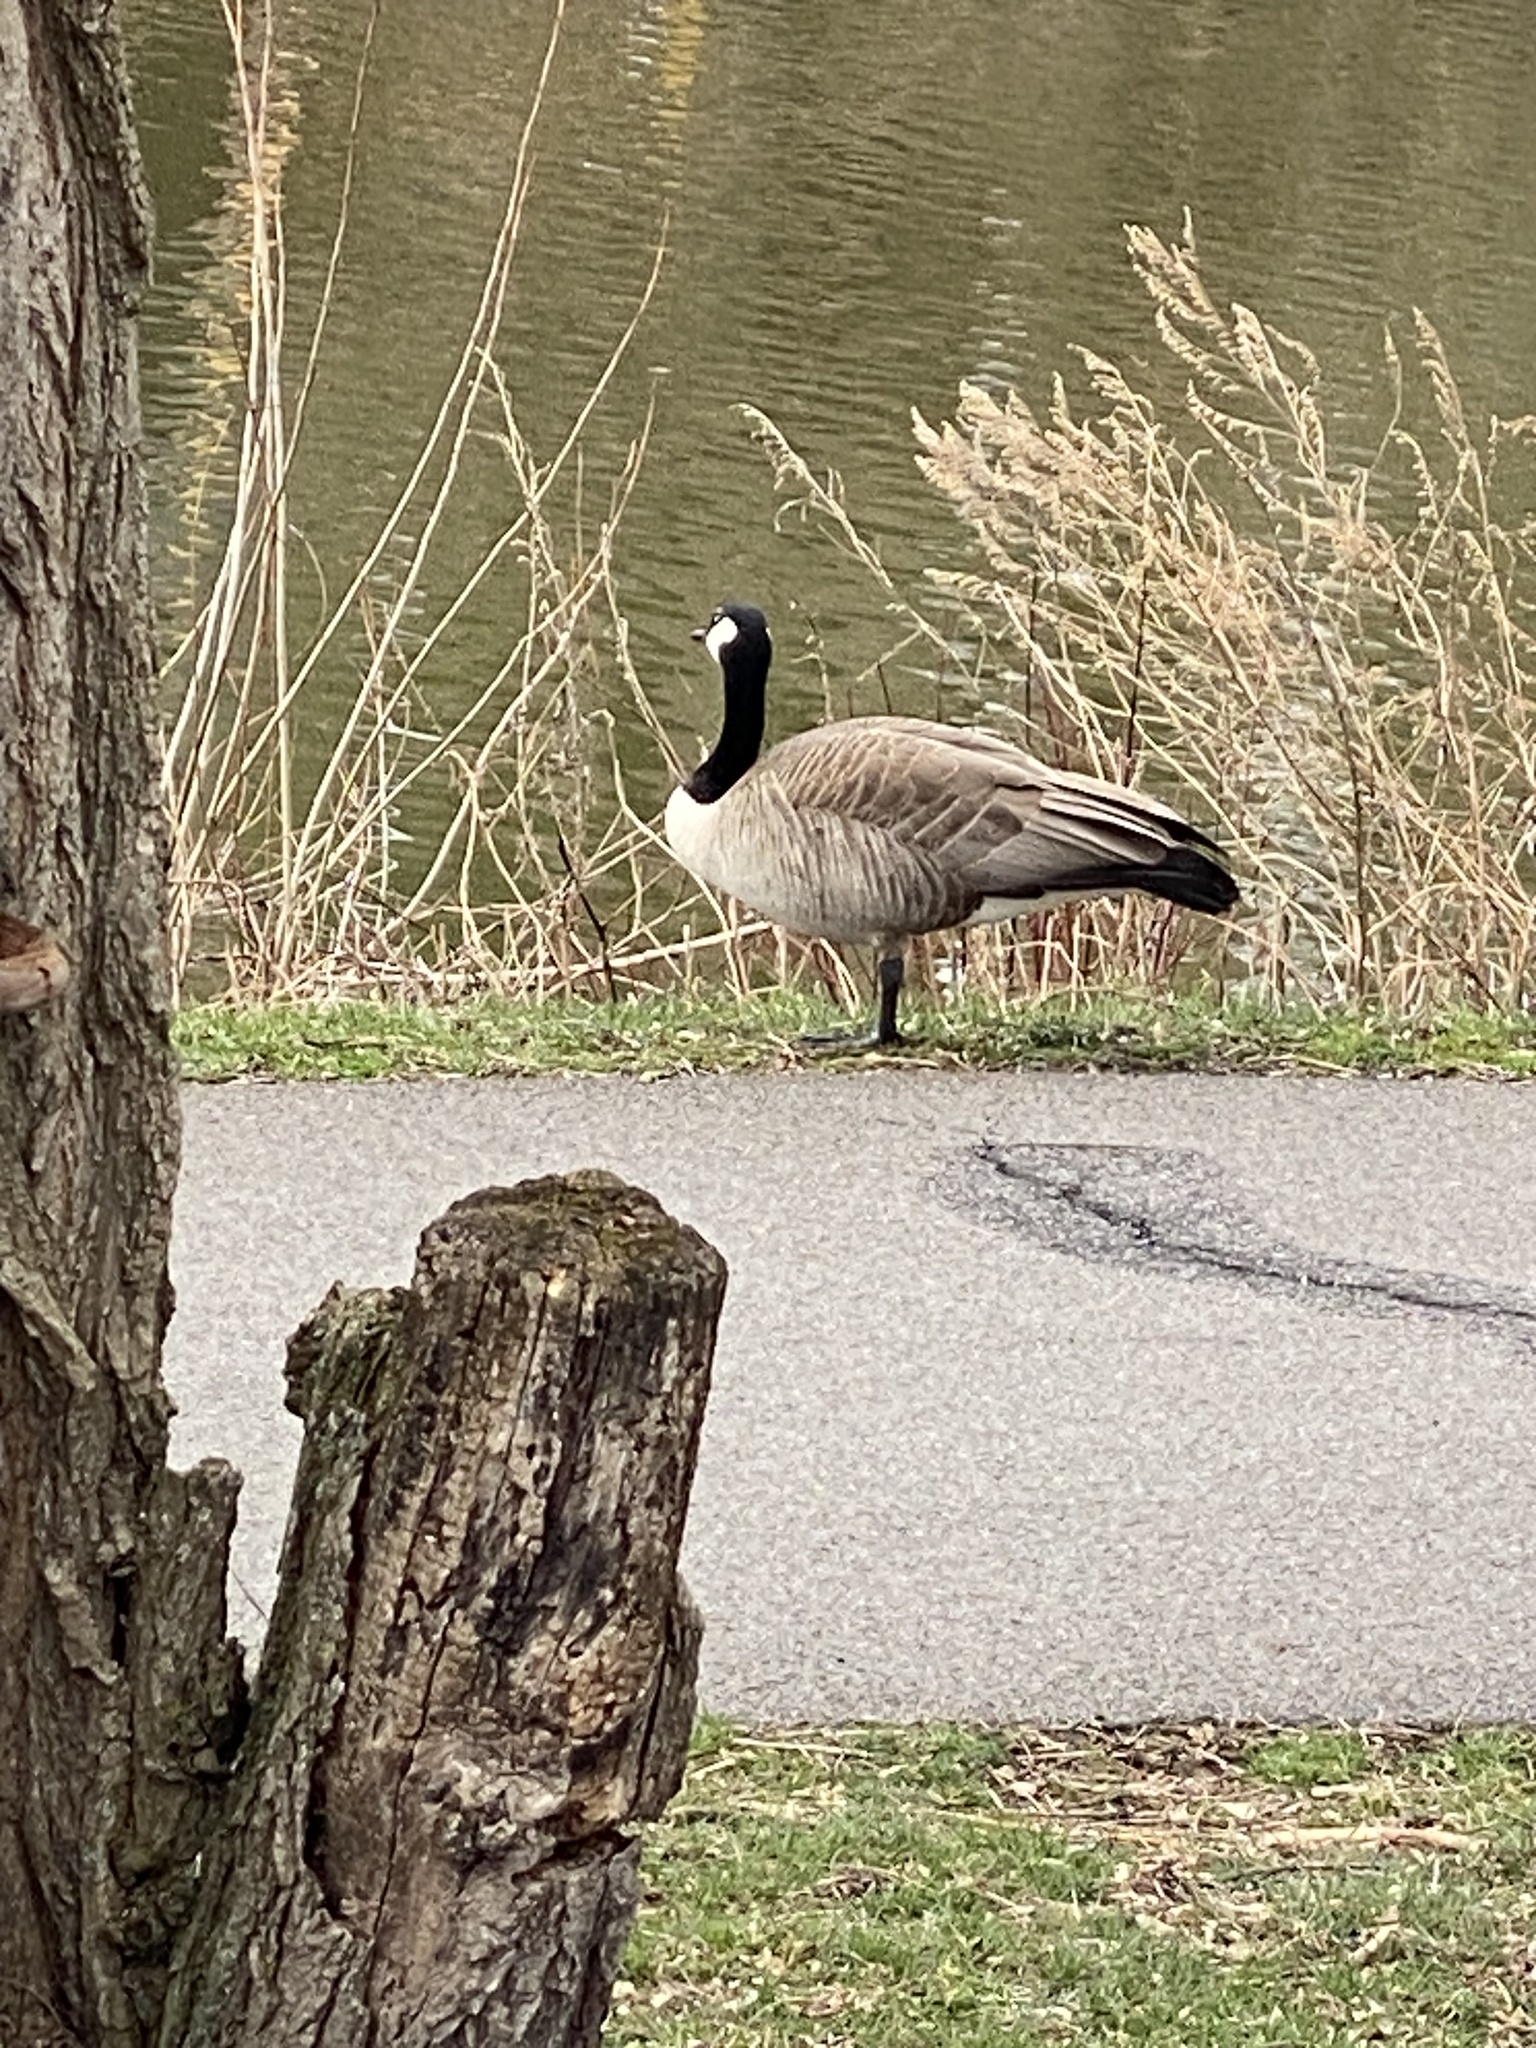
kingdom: Animalia
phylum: Chordata
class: Aves
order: Anseriformes
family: Anatidae
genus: Branta
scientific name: Branta canadensis
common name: Canada goose
